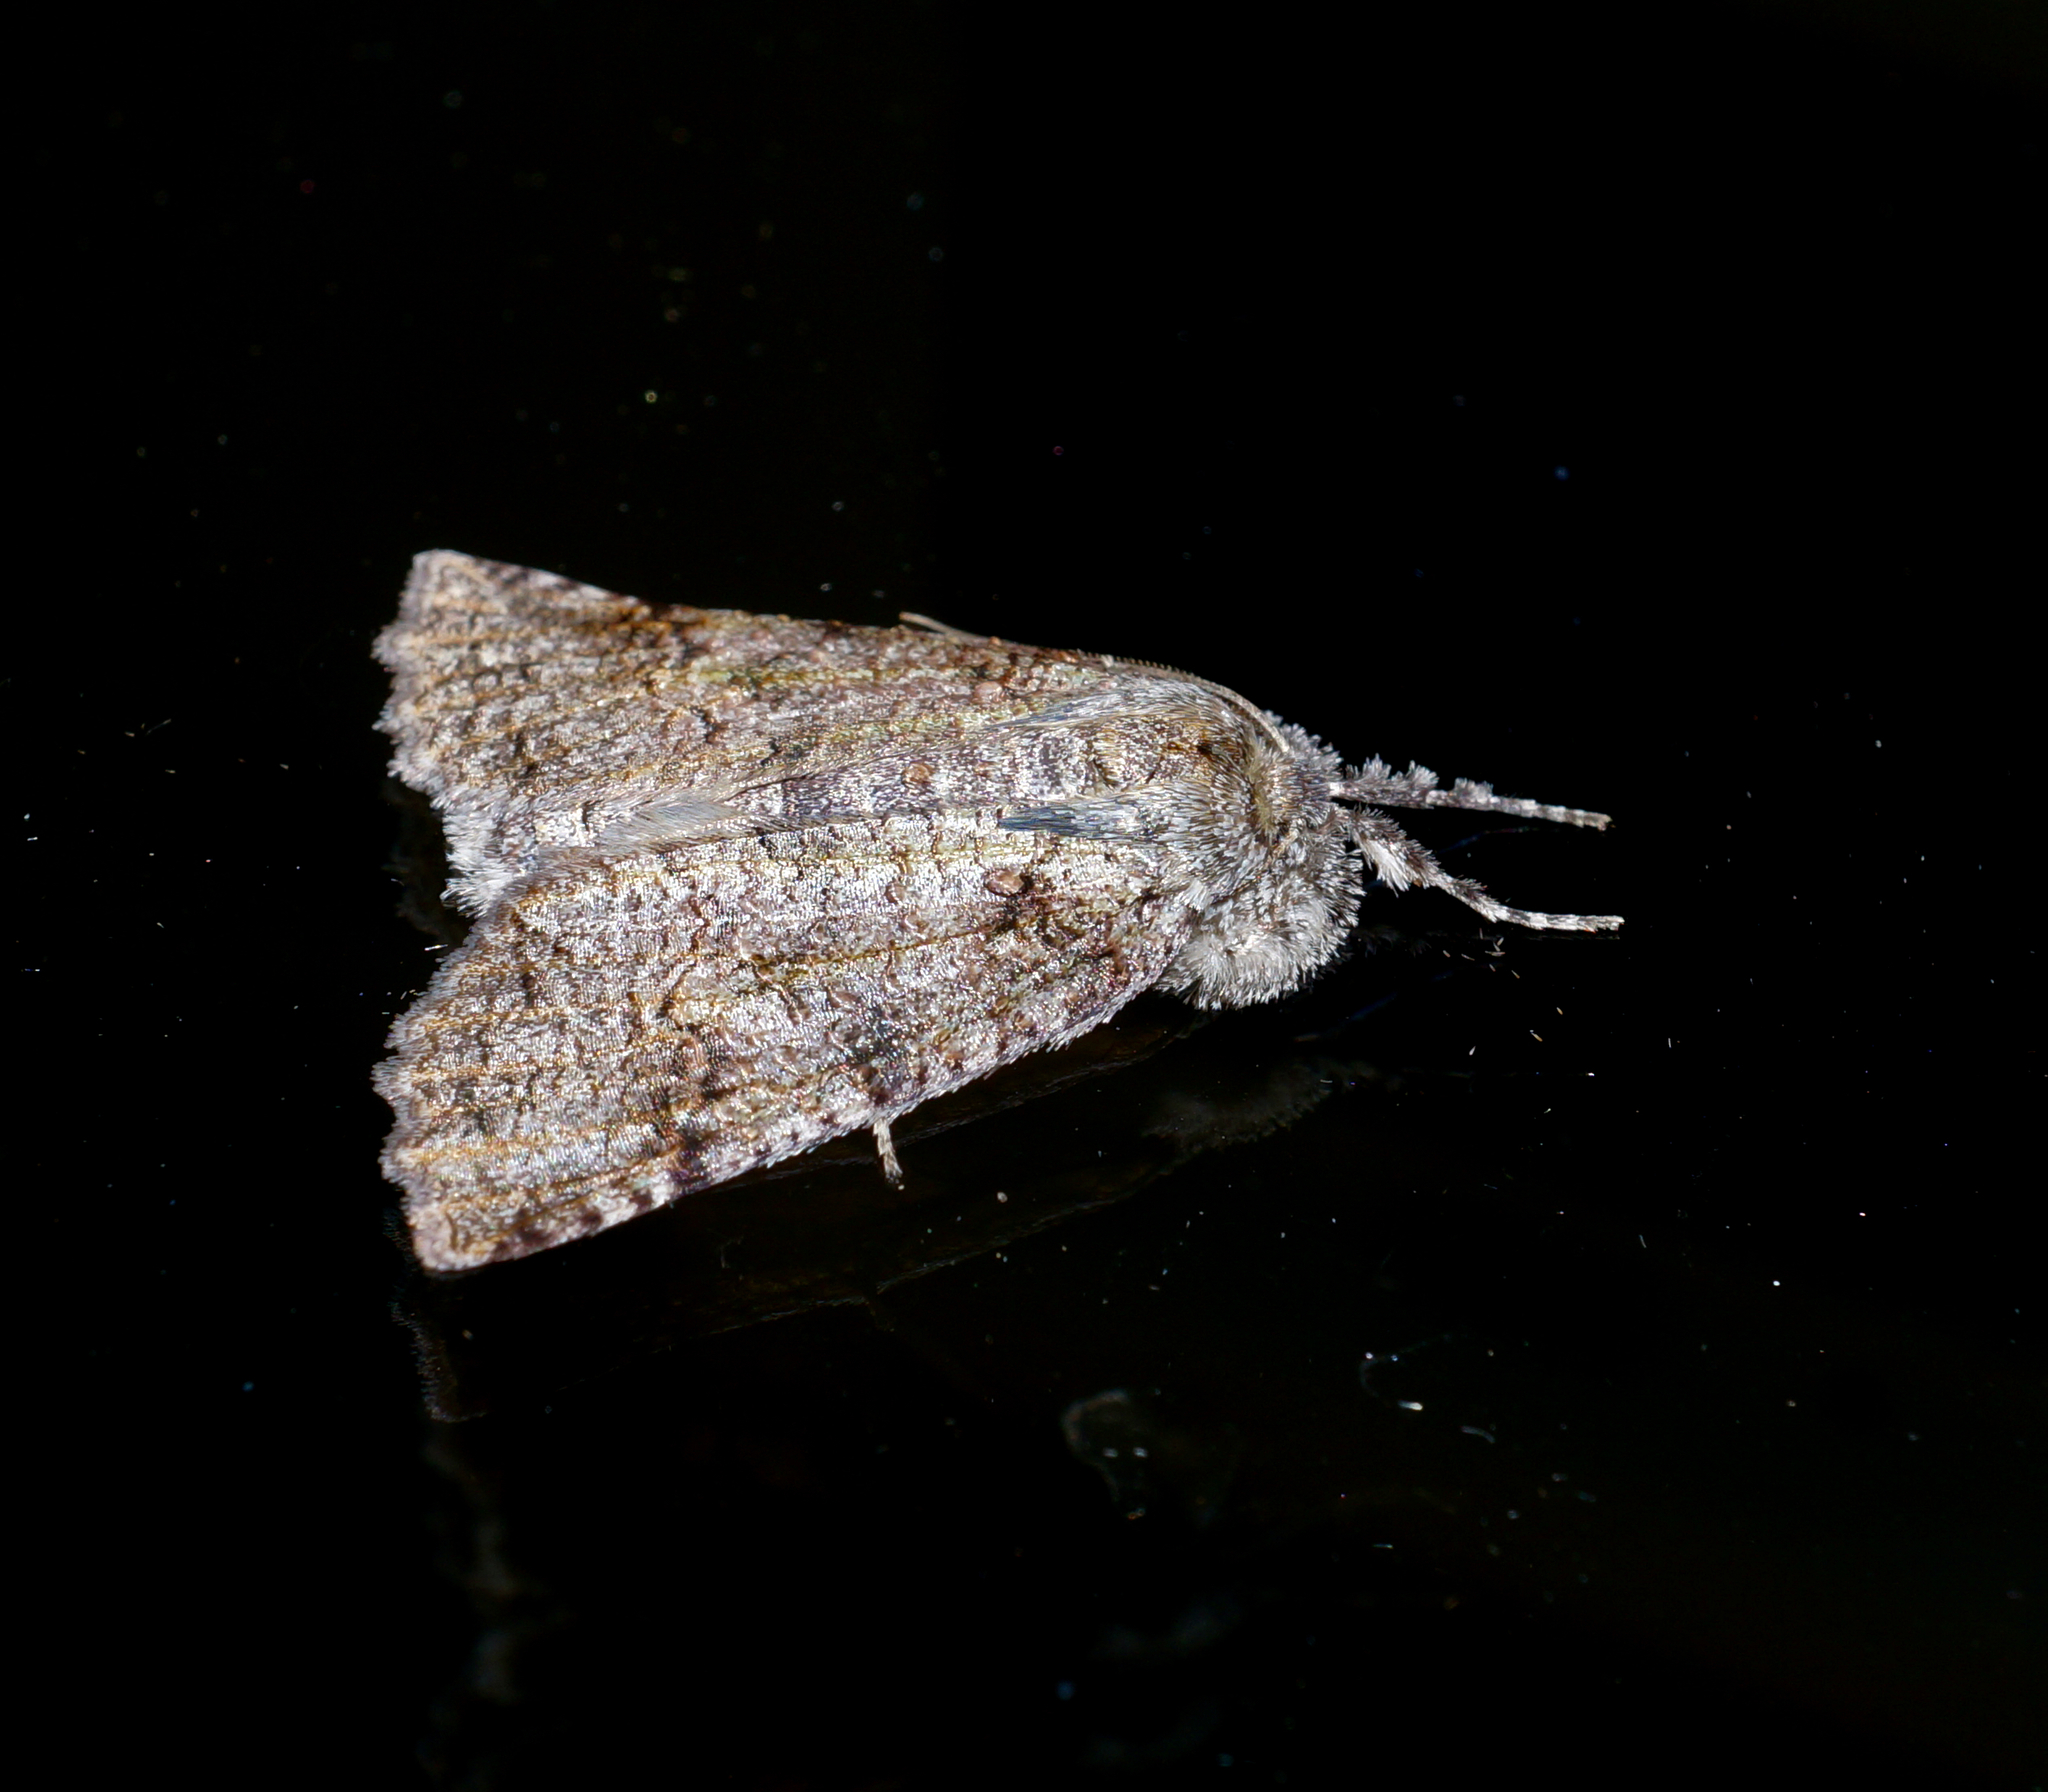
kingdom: Animalia
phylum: Arthropoda
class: Insecta
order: Lepidoptera
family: Geometridae
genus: Declana
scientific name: Declana floccosa
